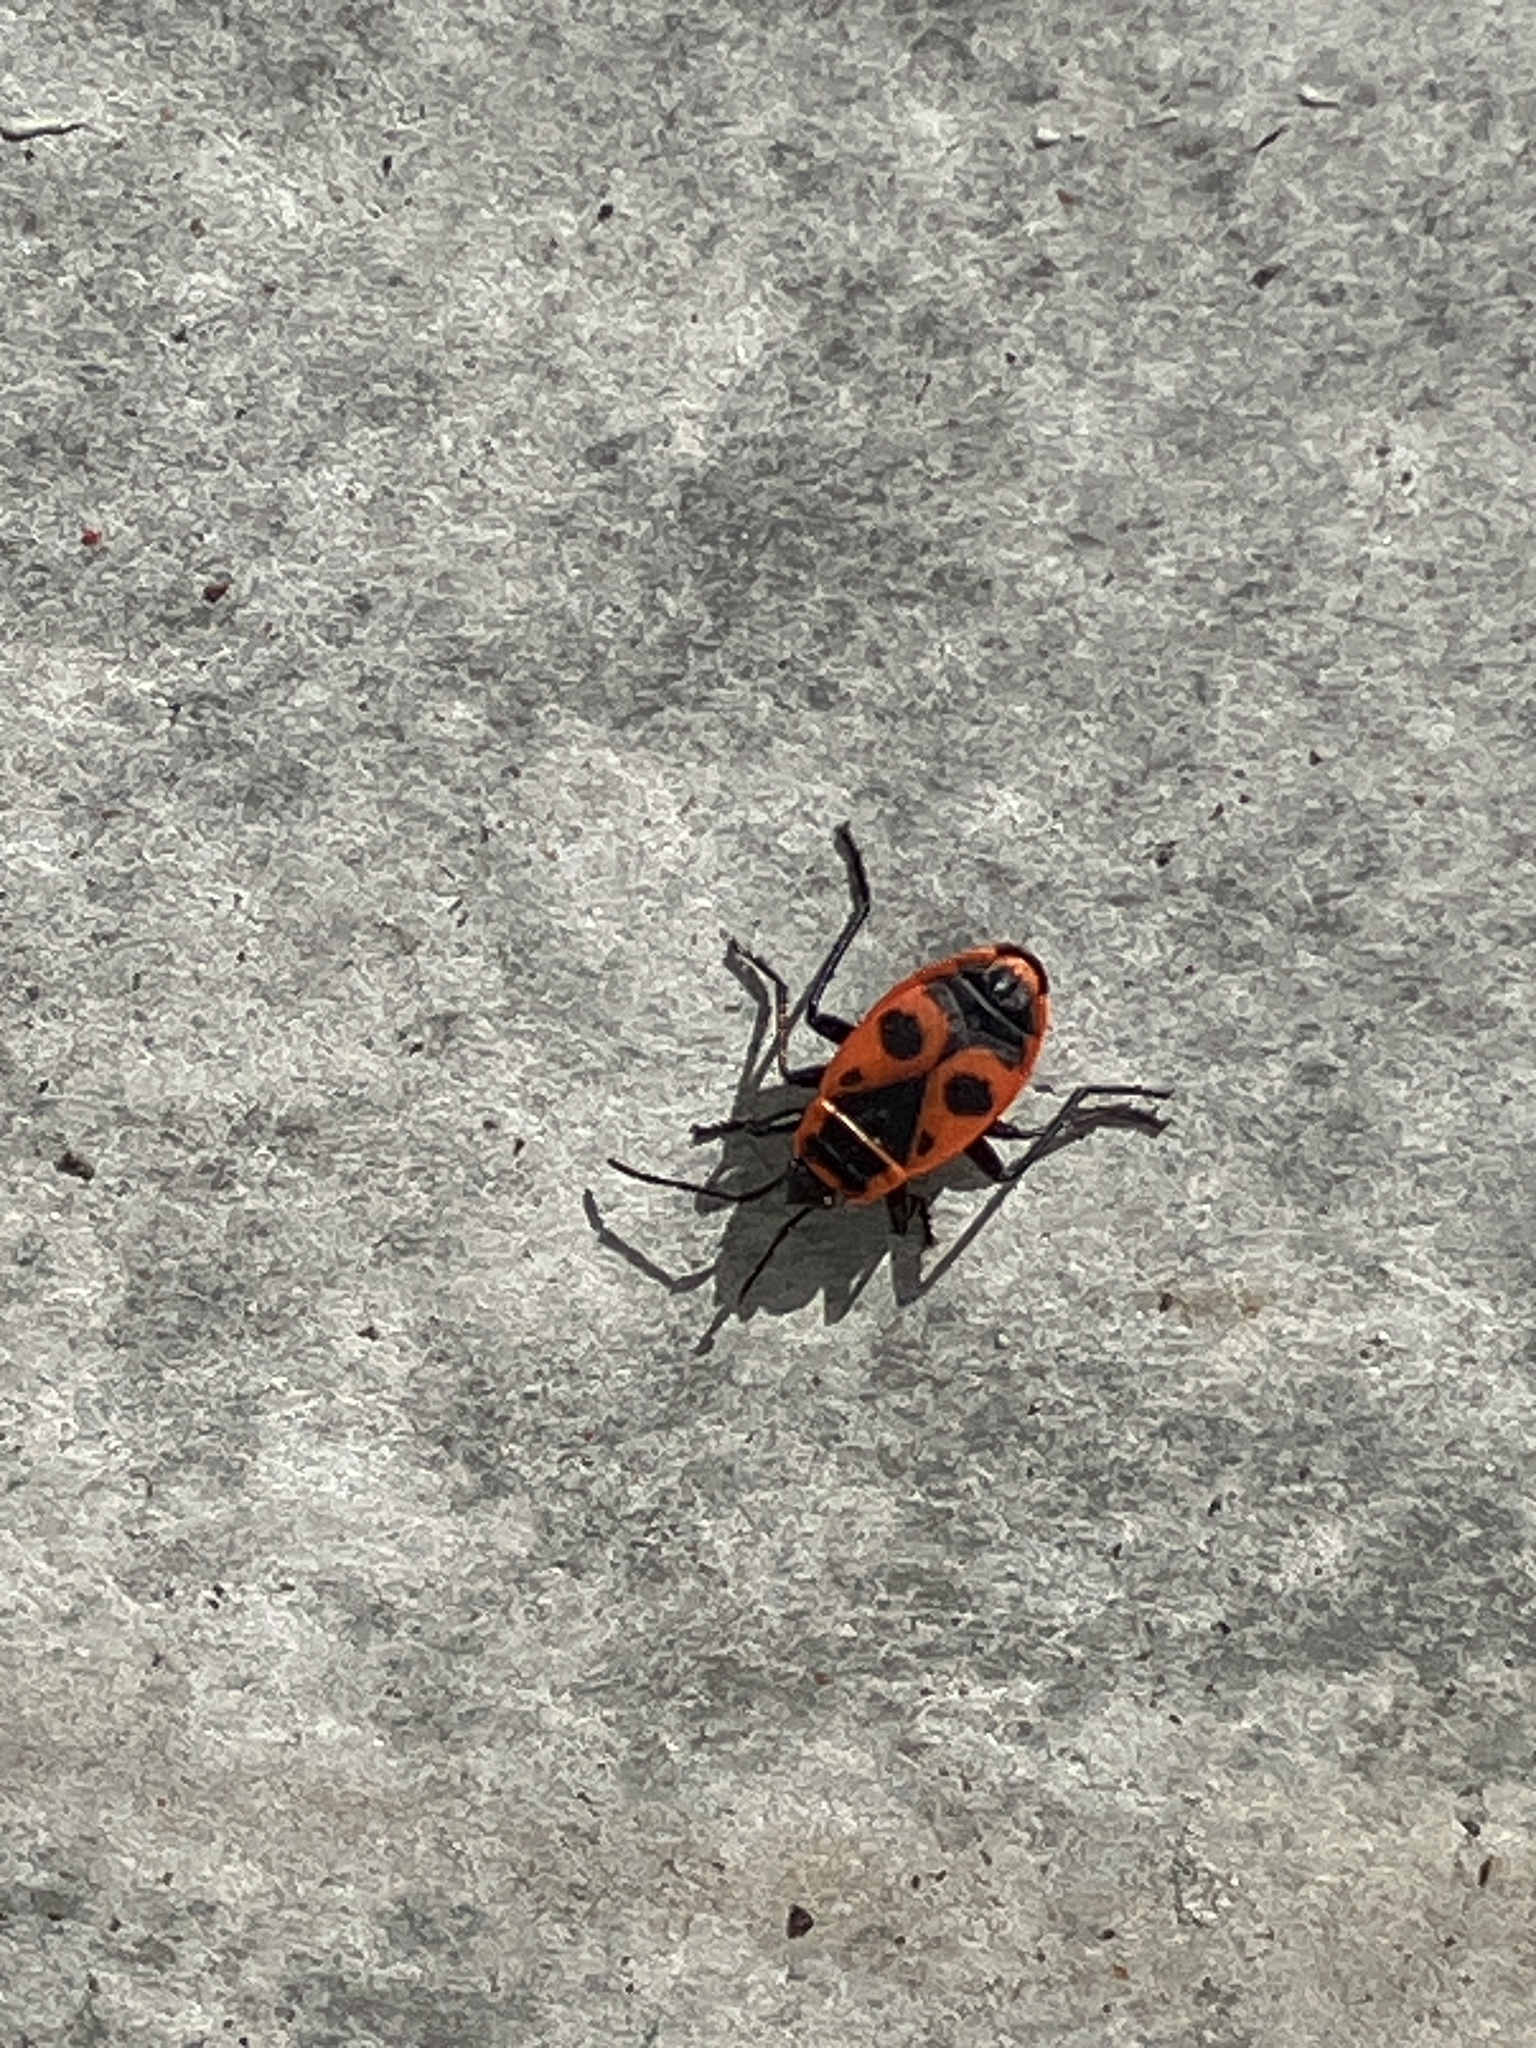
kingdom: Animalia
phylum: Arthropoda
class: Insecta
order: Hemiptera
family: Pyrrhocoridae
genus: Pyrrhocoris
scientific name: Pyrrhocoris apterus
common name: Firebug
